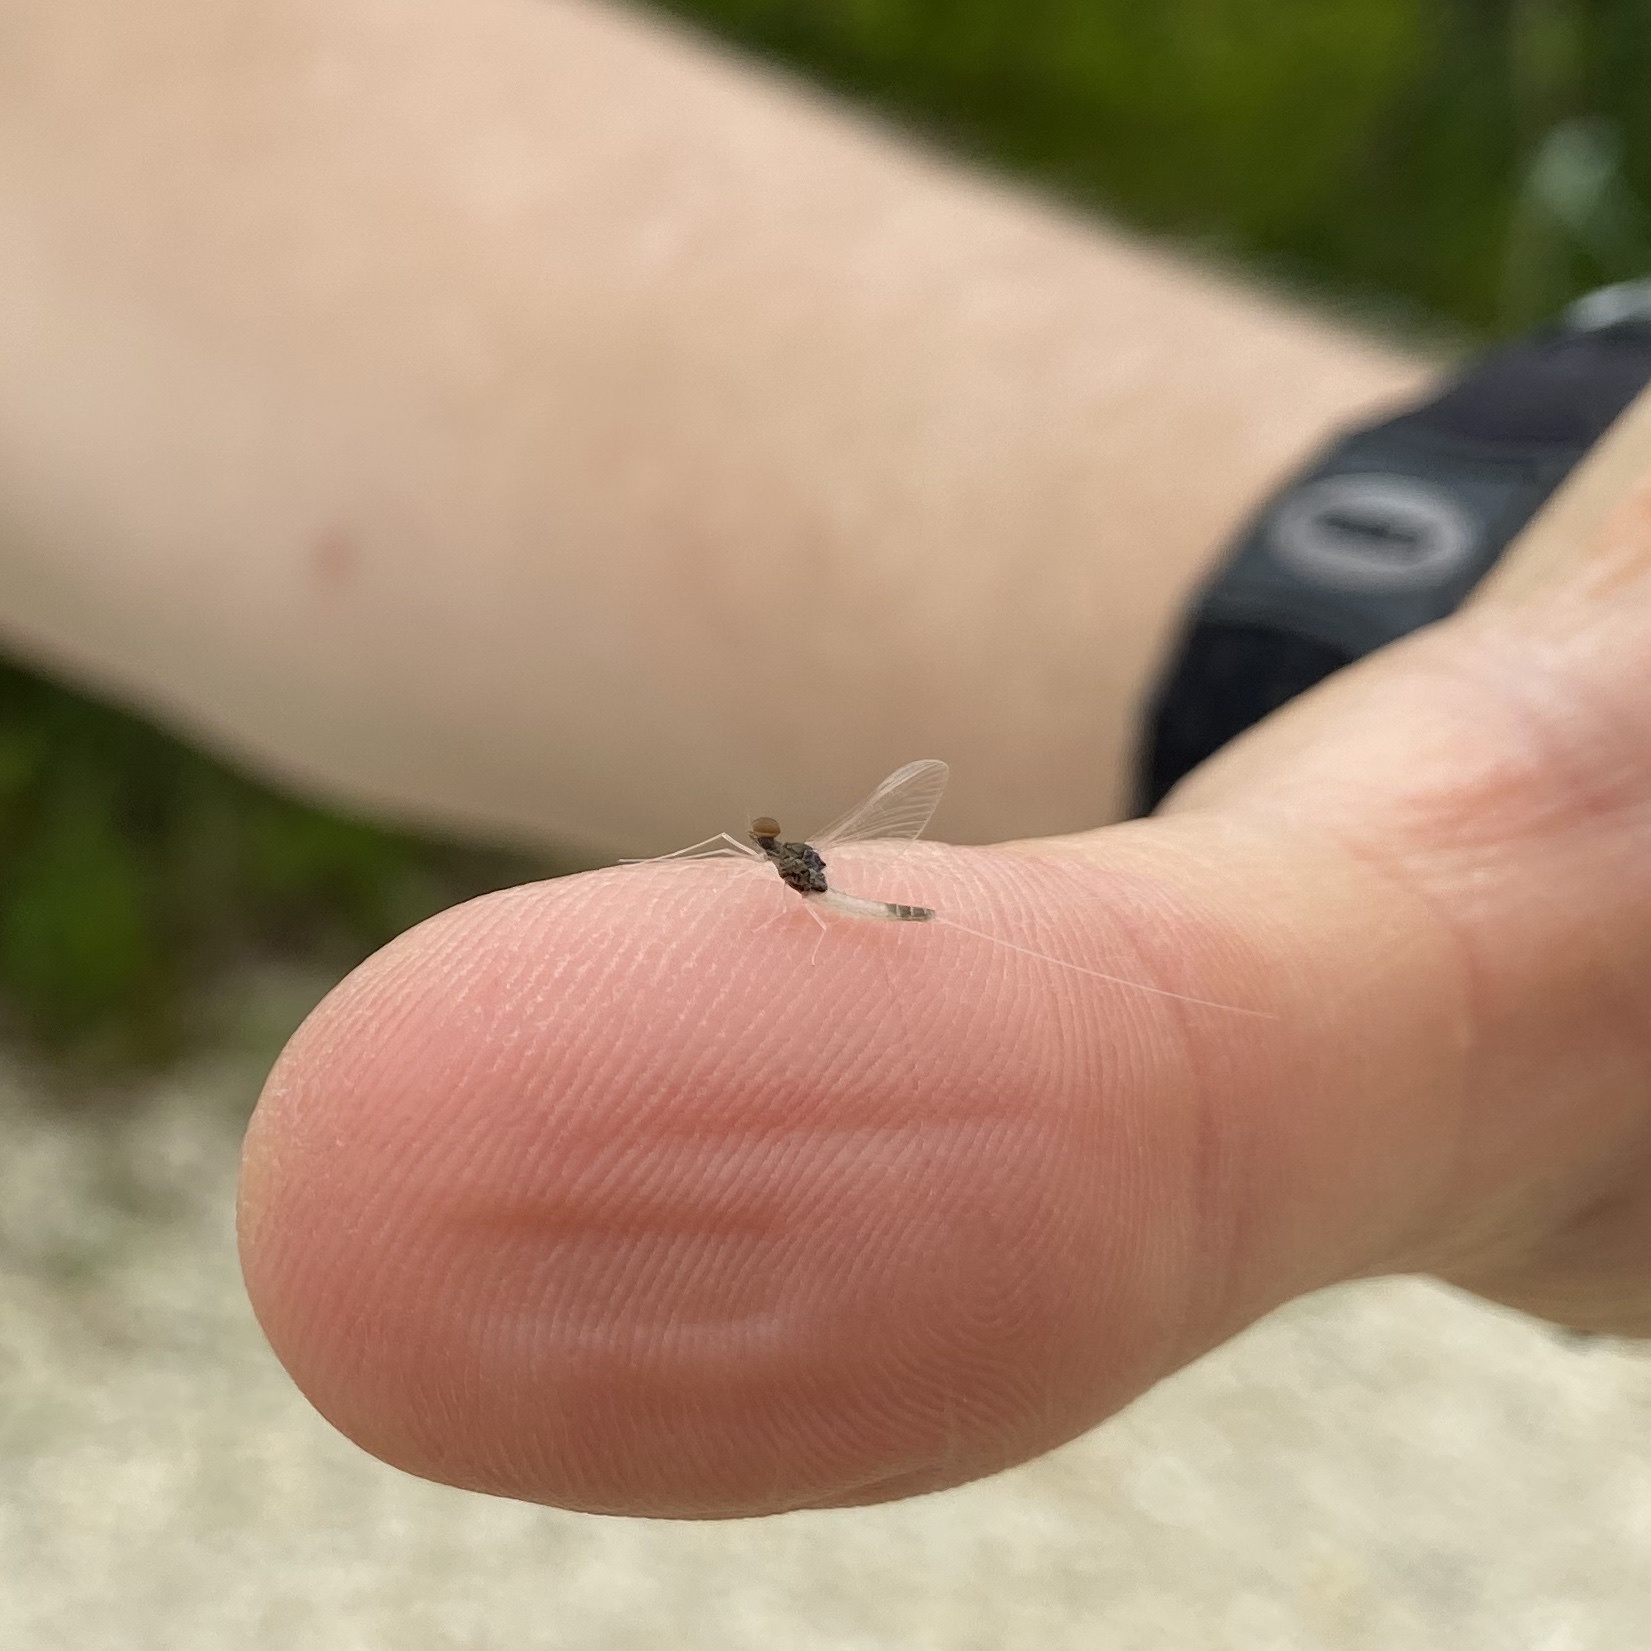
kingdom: Animalia
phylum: Arthropoda
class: Insecta
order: Ephemeroptera
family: Baetidae
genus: Baetis
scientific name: Baetis intercalaris
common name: Small eastern blue-winged olive
